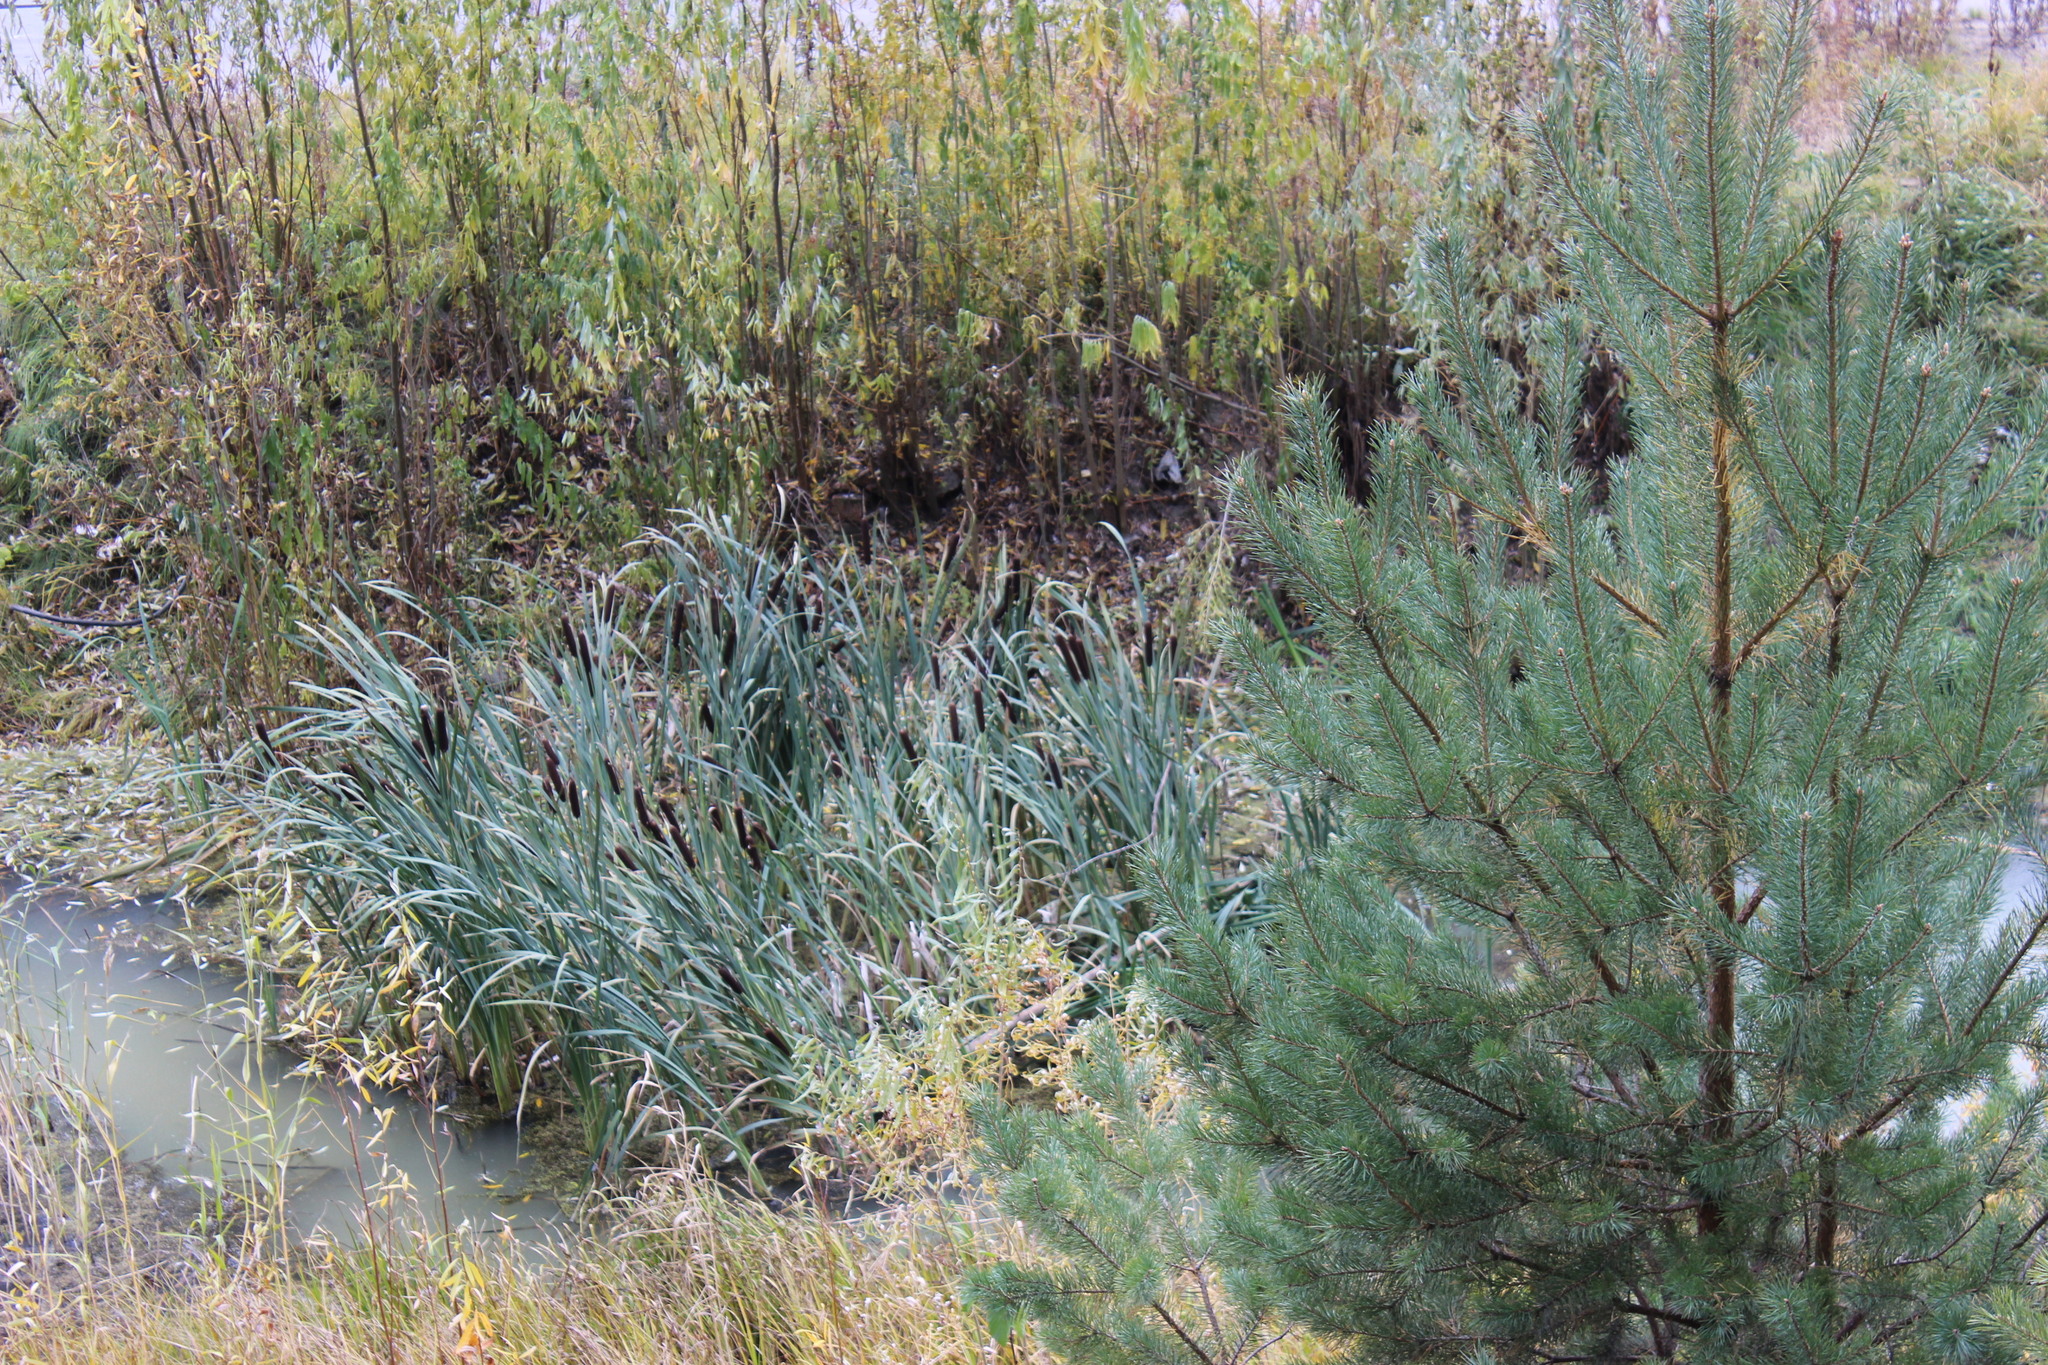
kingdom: Plantae
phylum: Tracheophyta
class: Liliopsida
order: Poales
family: Typhaceae
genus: Typha
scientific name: Typha latifolia
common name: Broadleaf cattail
